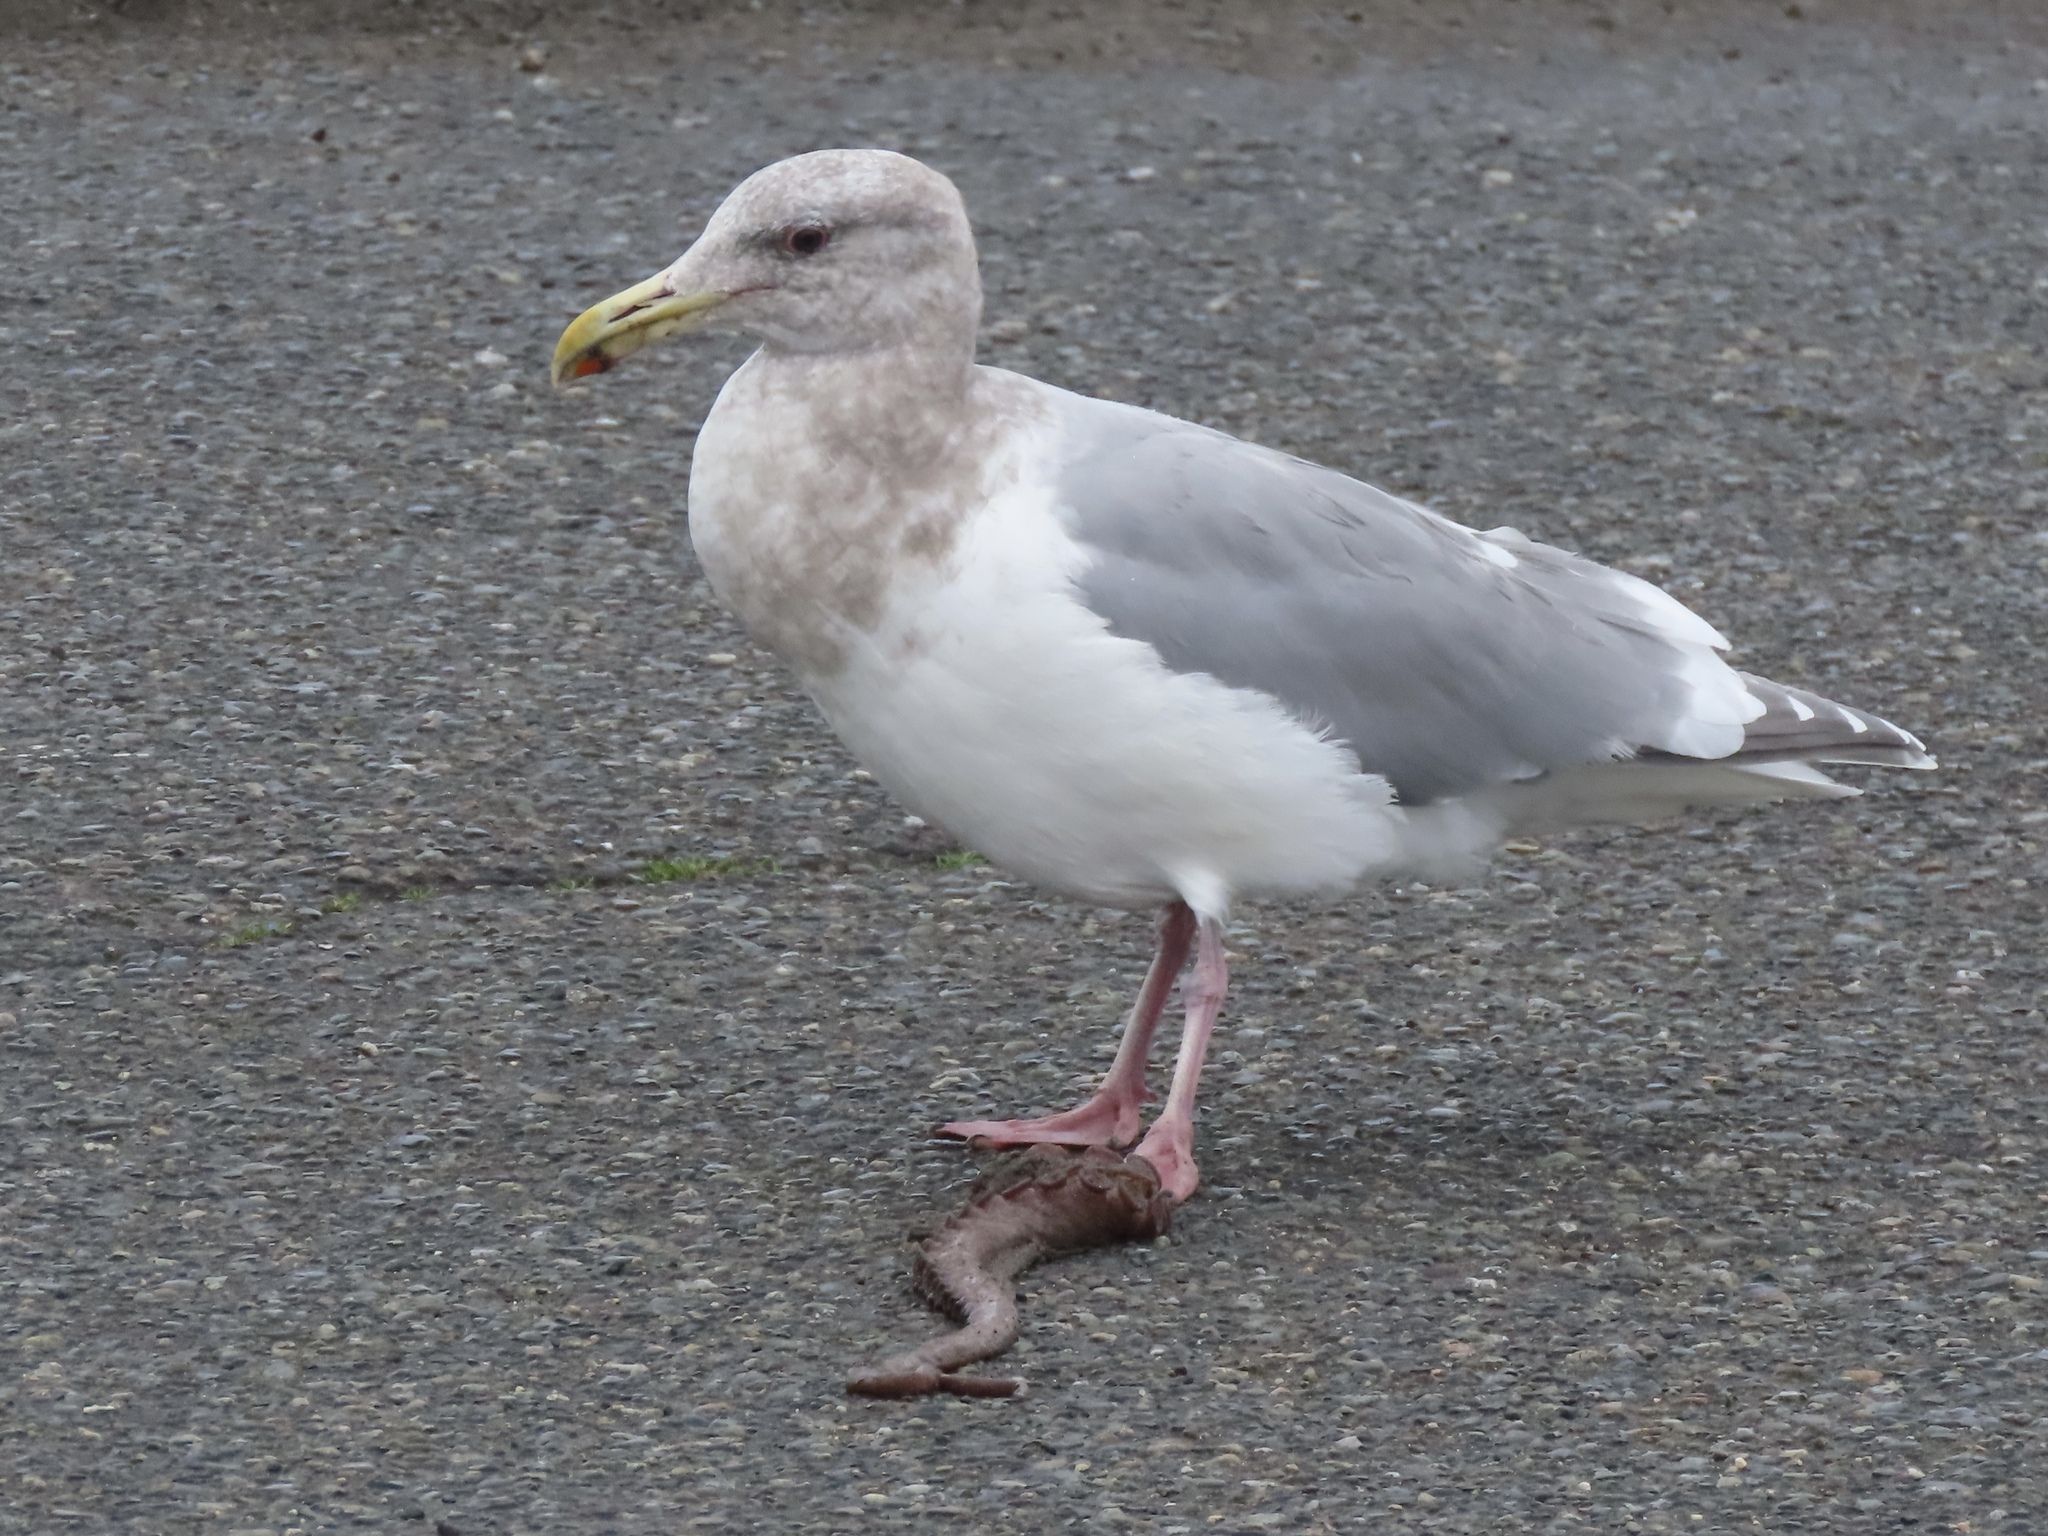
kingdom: Animalia
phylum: Chordata
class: Aves
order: Charadriiformes
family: Laridae
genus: Larus
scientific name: Larus glaucescens
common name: Glaucous-winged gull
